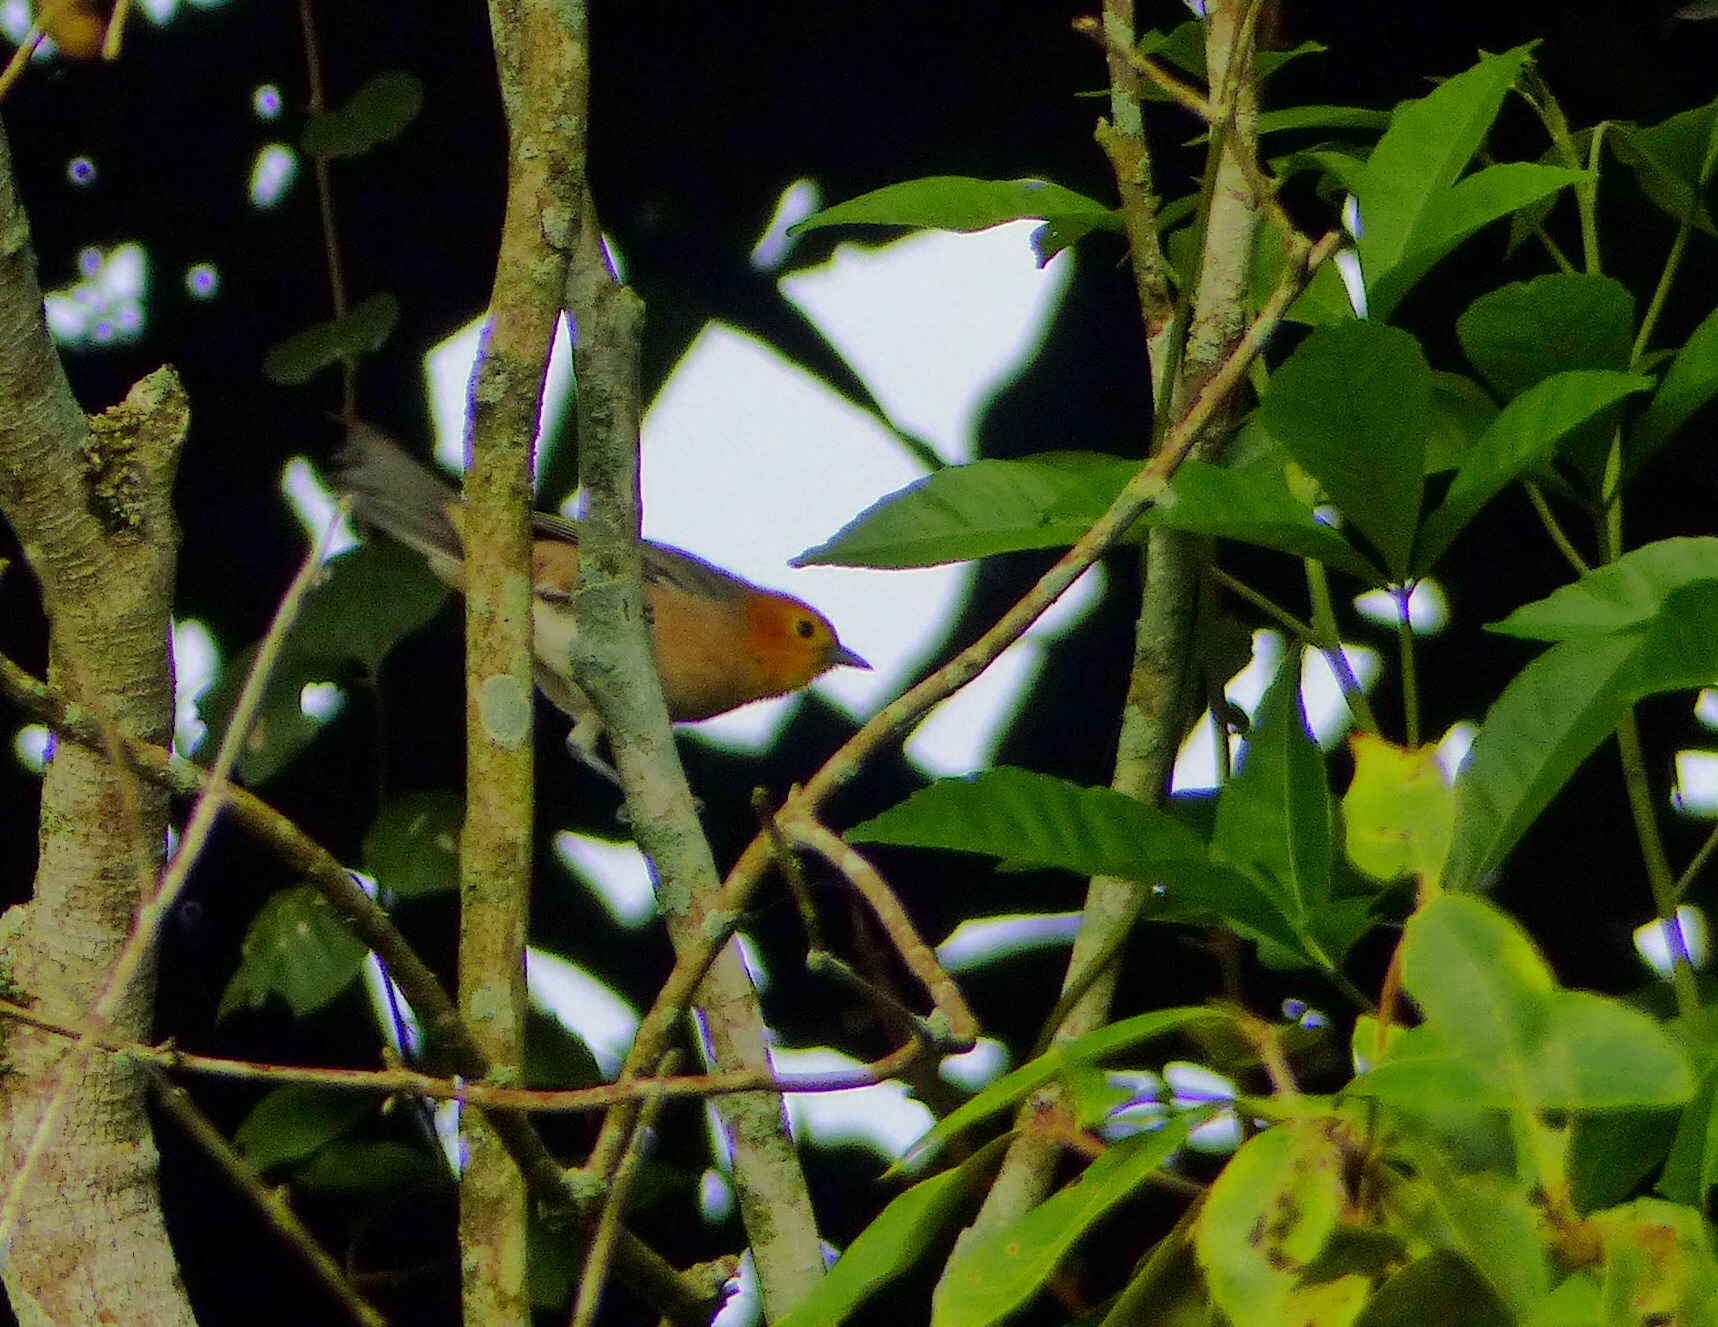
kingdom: Animalia
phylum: Chordata
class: Aves
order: Passeriformes
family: Thraupidae
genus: Thlypopsis
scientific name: Thlypopsis sordida
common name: Orange-headed tanager
